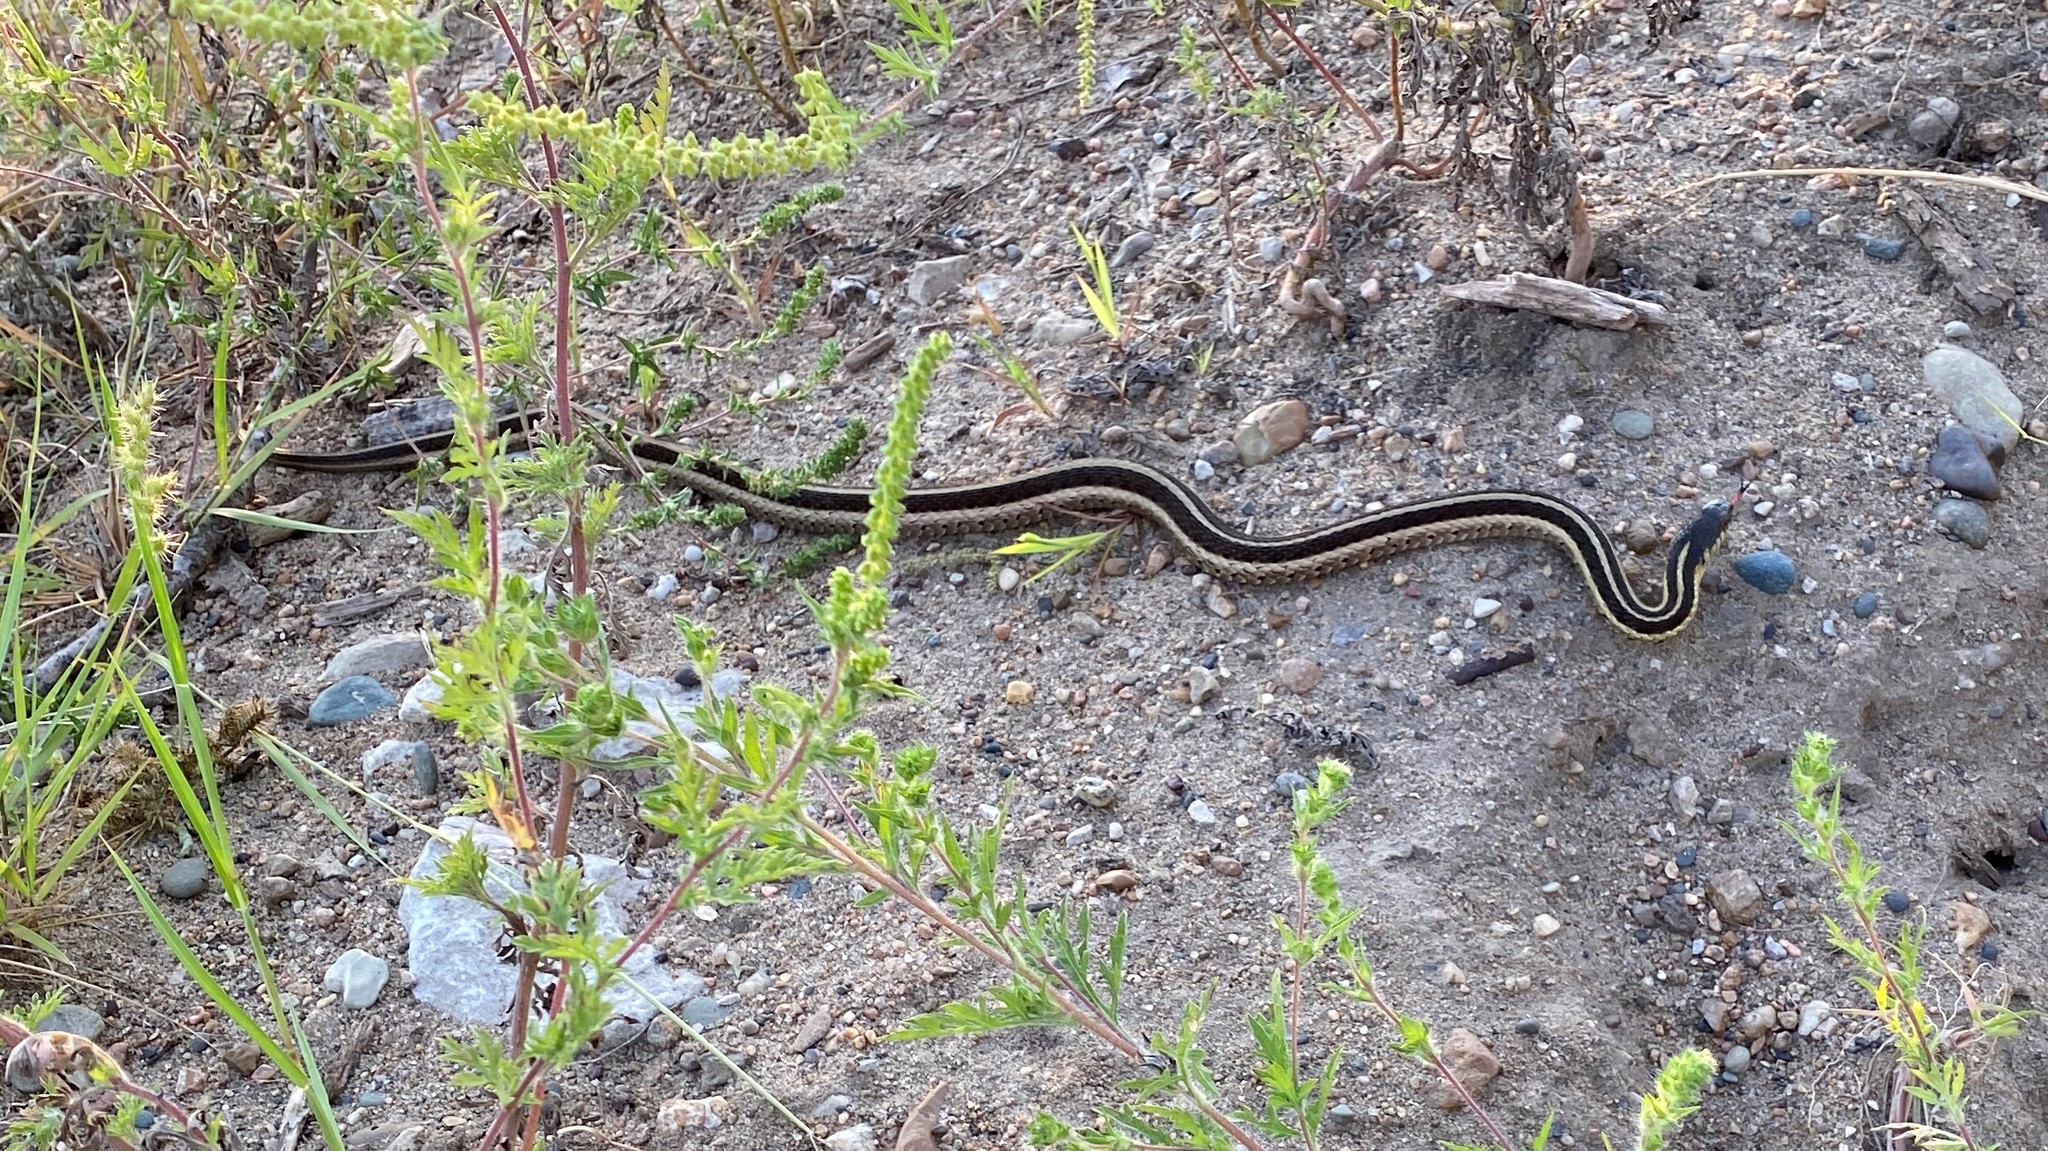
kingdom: Animalia
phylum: Chordata
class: Squamata
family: Colubridae
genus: Thamnophis
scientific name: Thamnophis sirtalis
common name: Common garter snake
